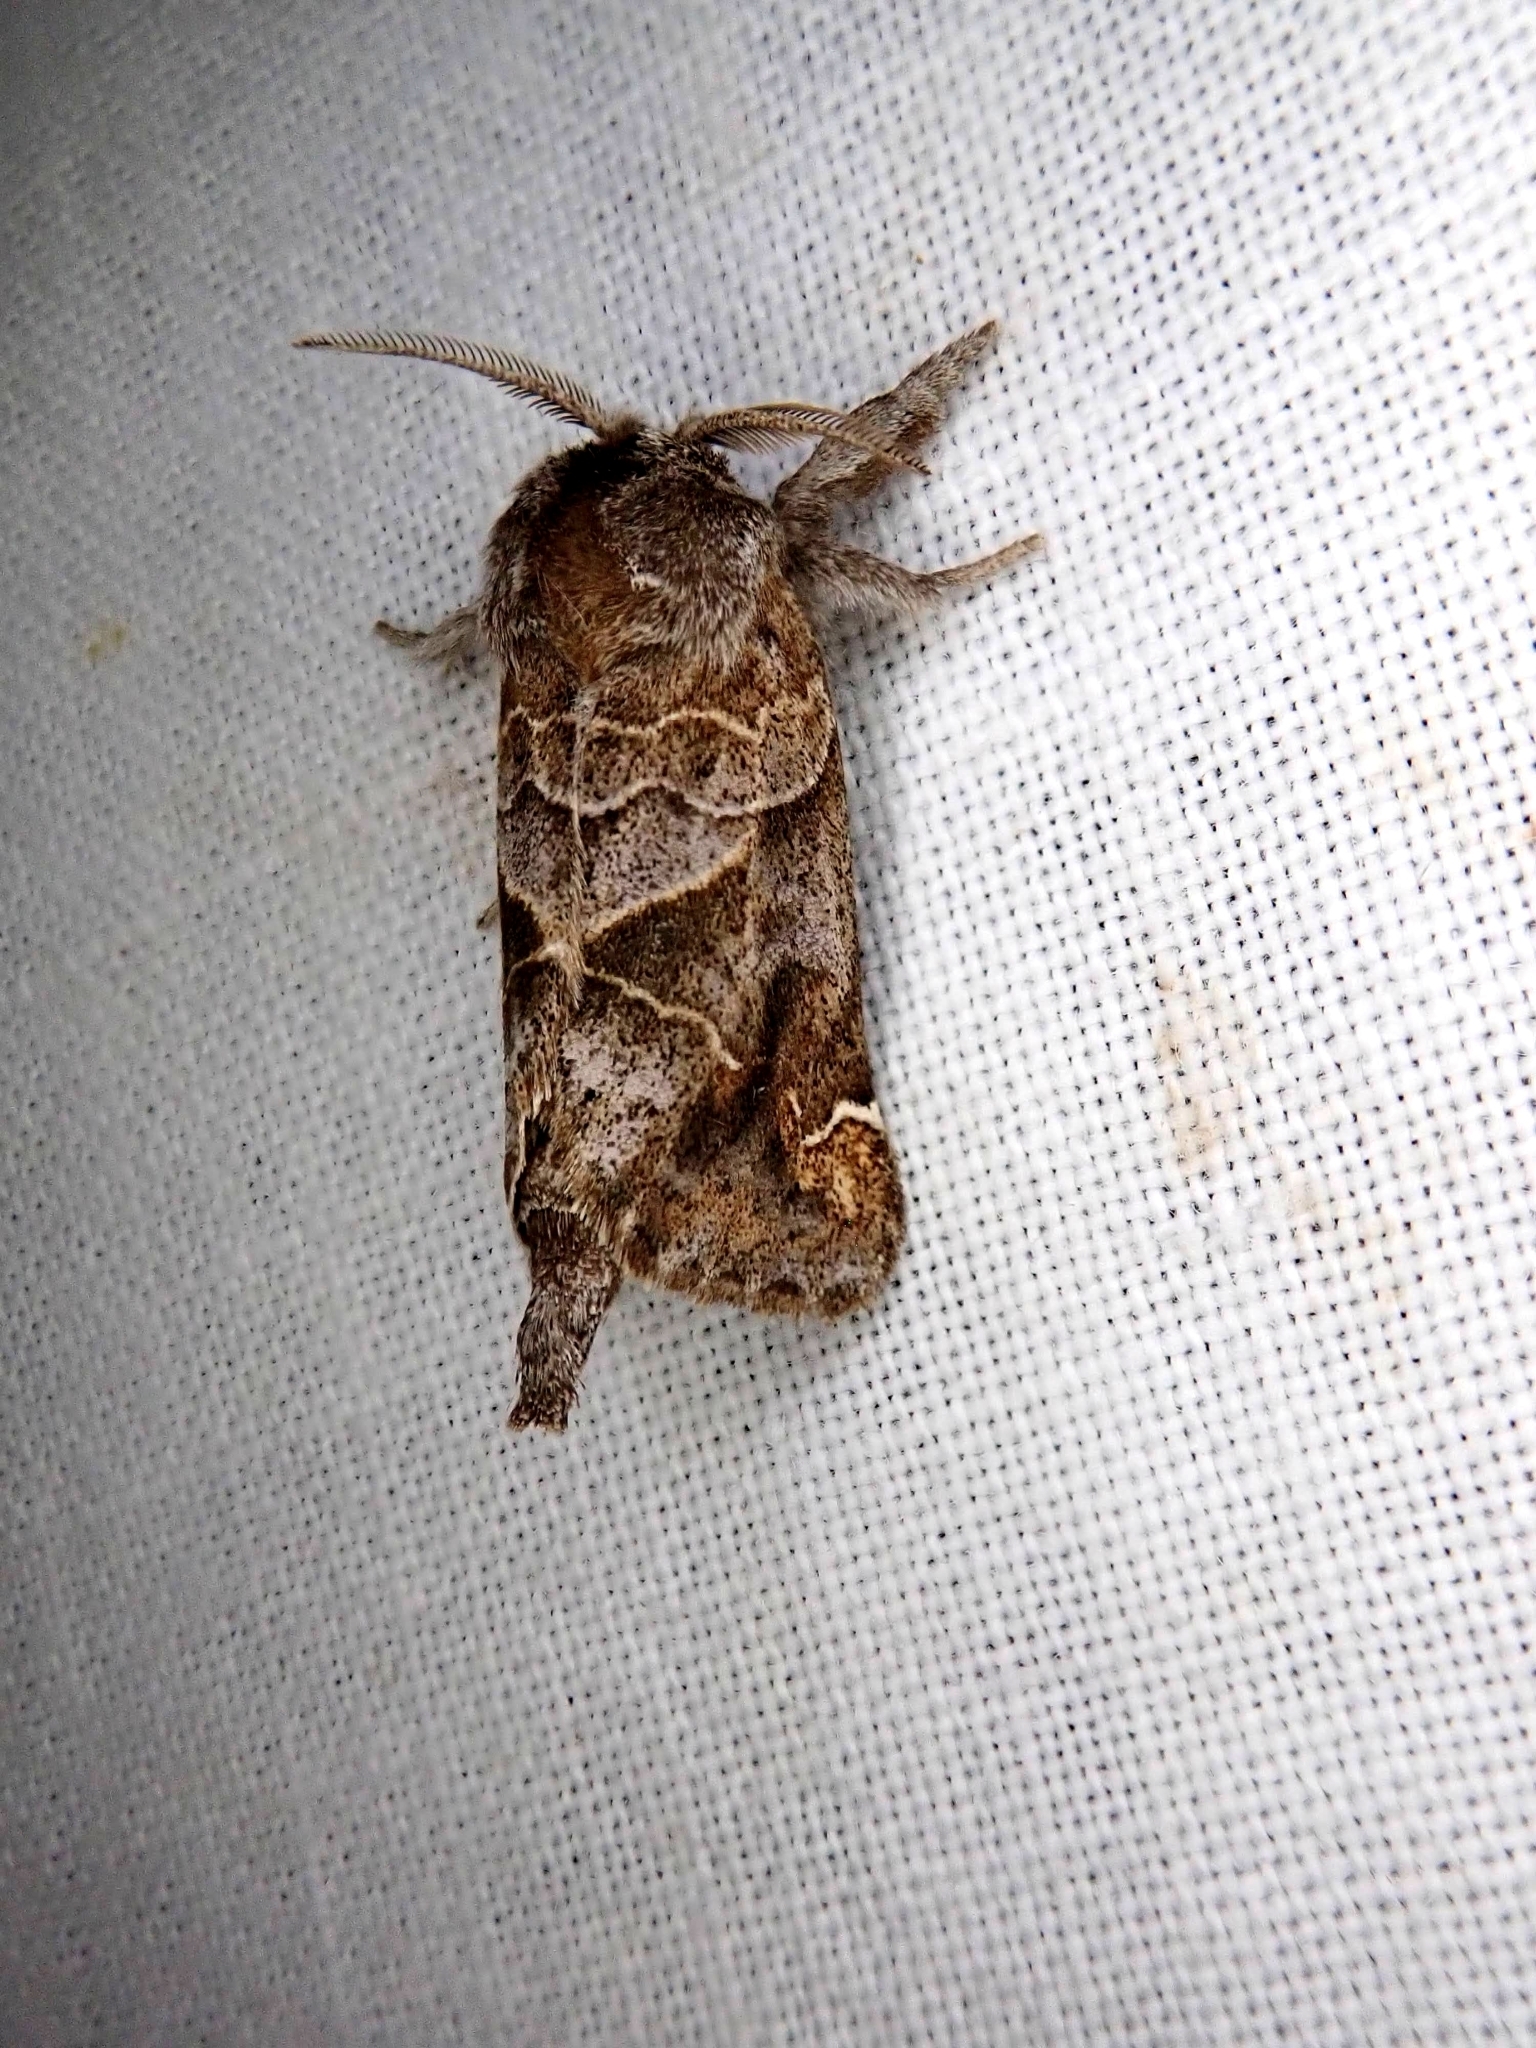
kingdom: Animalia
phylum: Arthropoda
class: Insecta
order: Lepidoptera
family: Notodontidae
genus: Clostera
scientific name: Clostera strigosa
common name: Striped chocolate-tip moth
